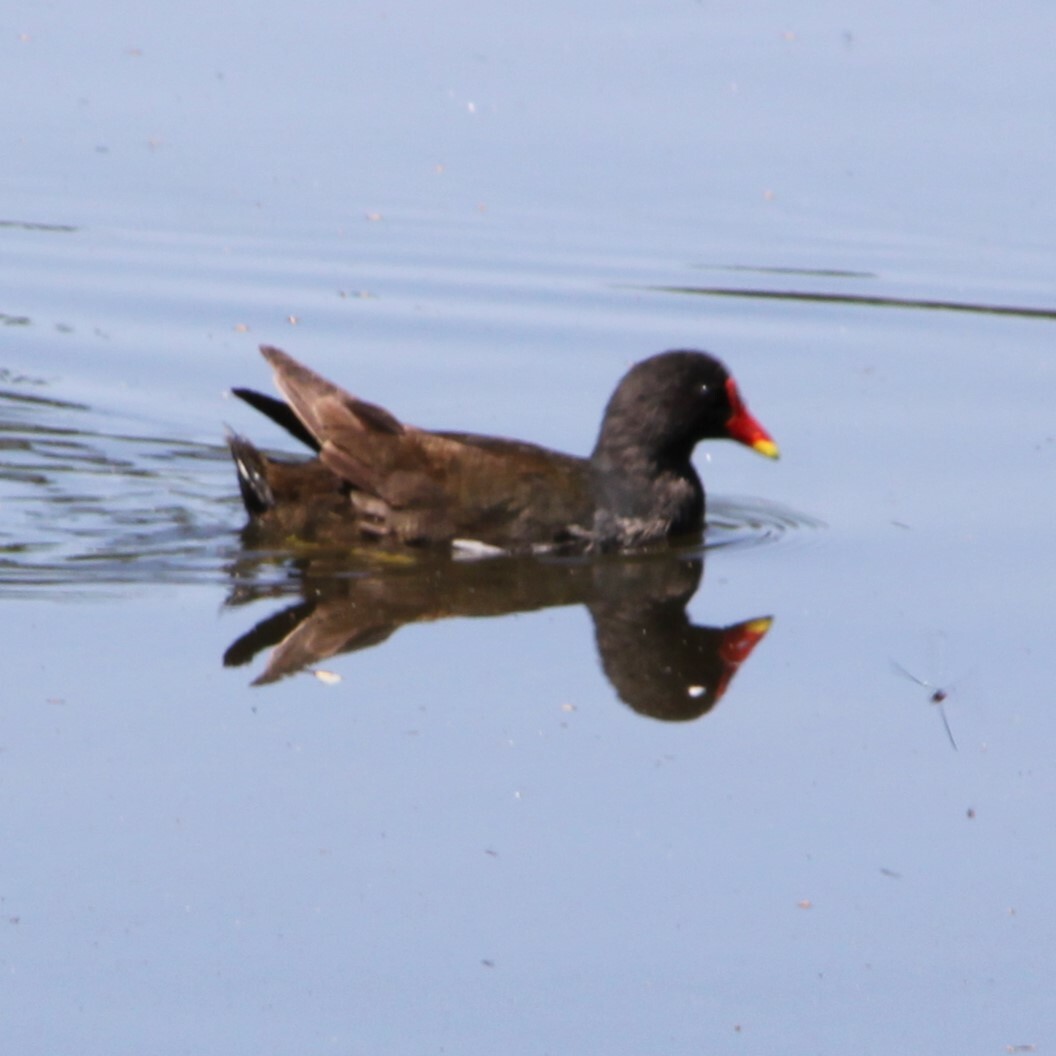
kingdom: Animalia
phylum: Chordata
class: Aves
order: Gruiformes
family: Rallidae
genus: Gallinula
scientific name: Gallinula chloropus
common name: Common moorhen
